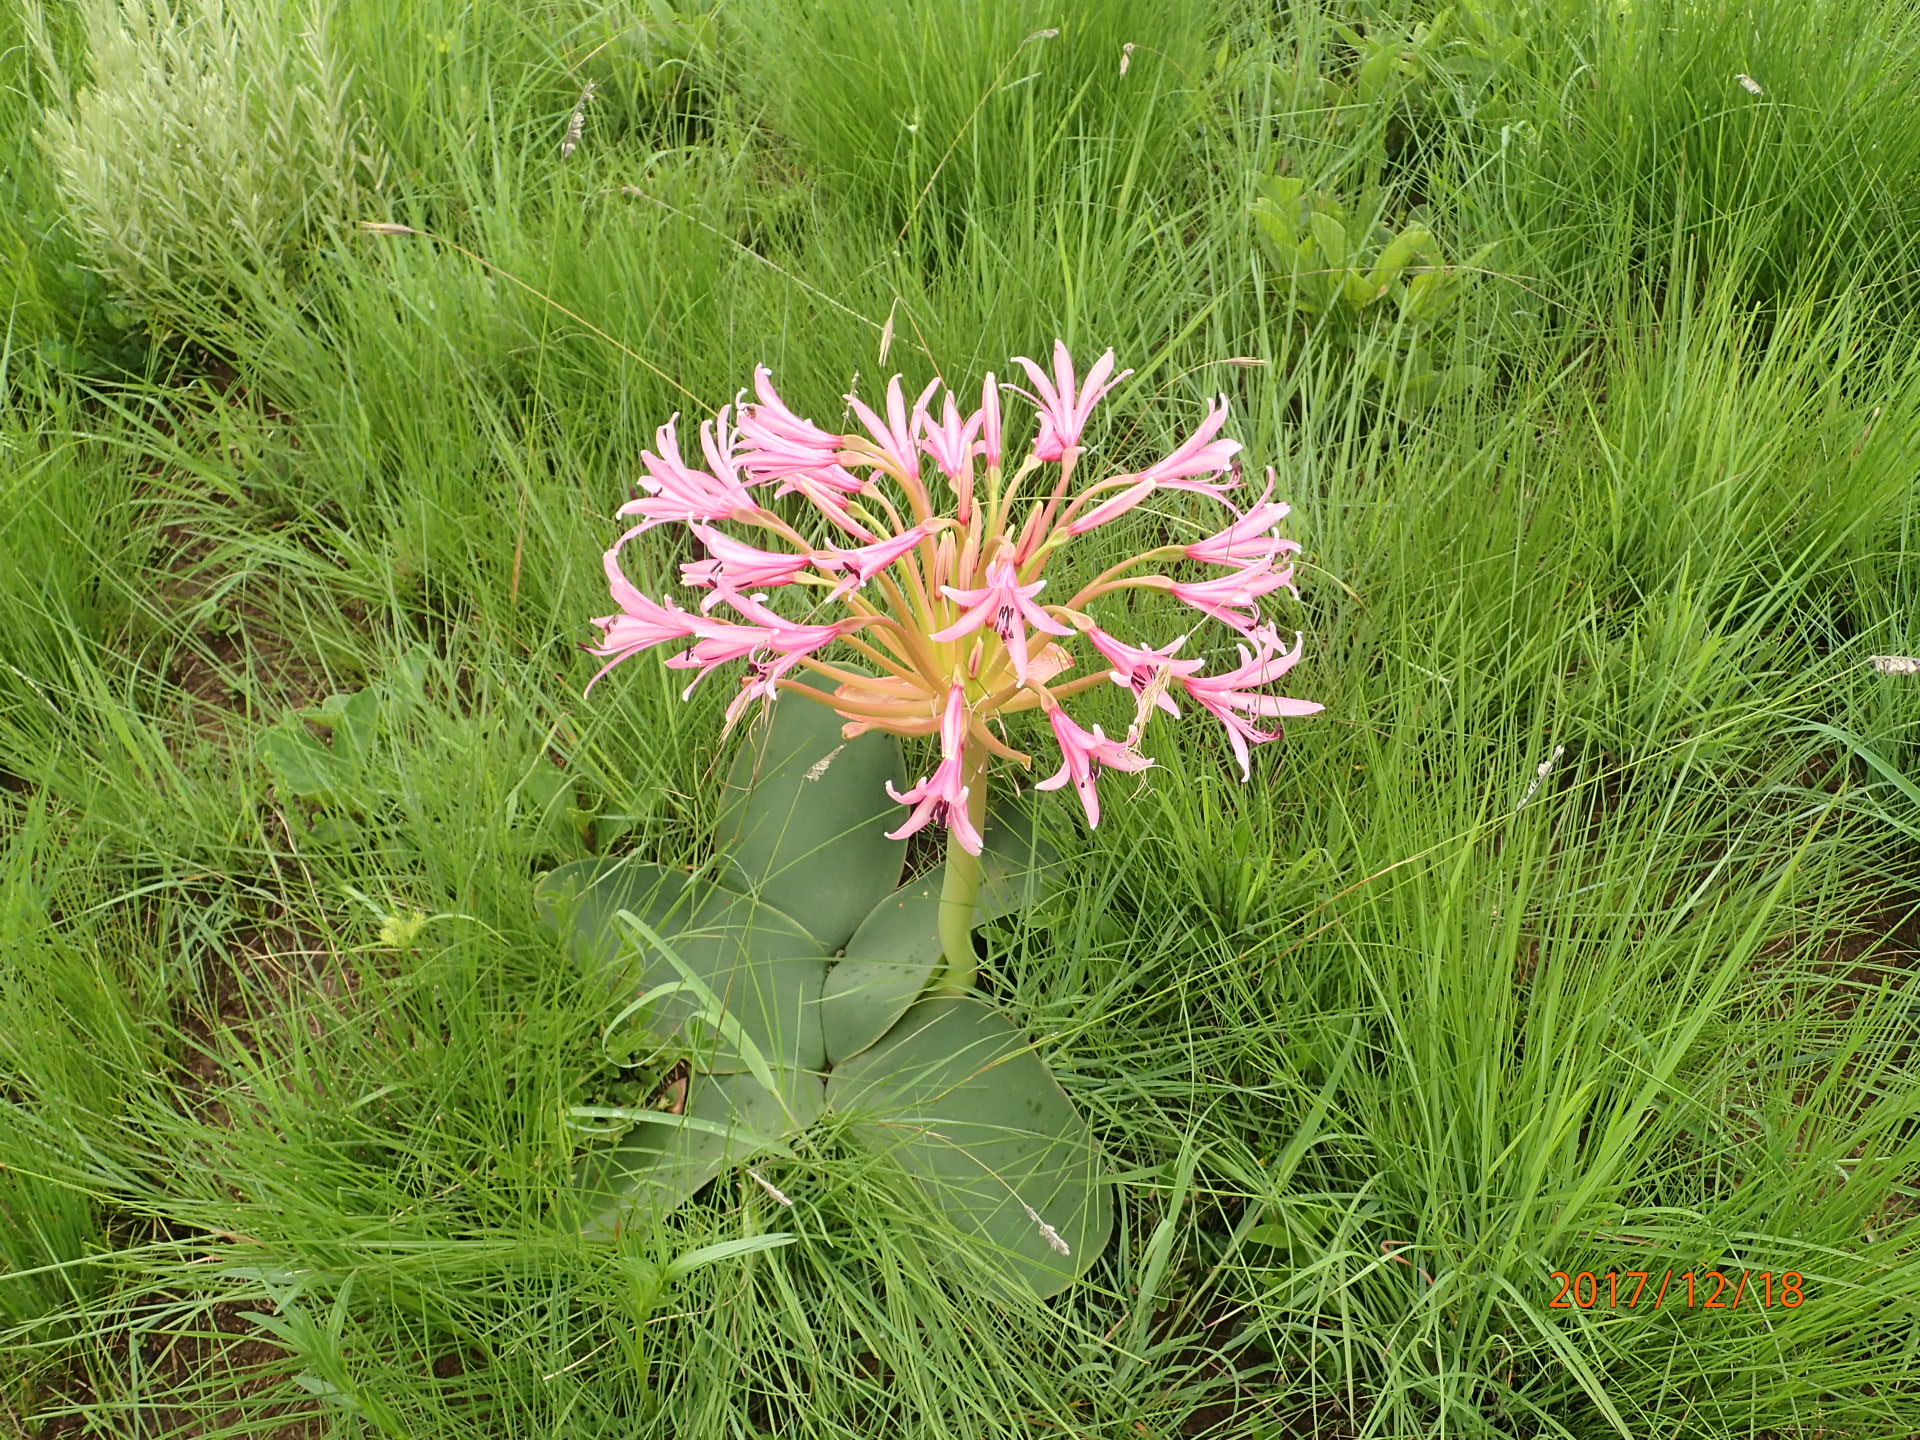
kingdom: Plantae
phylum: Tracheophyta
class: Liliopsida
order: Asparagales
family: Amaryllidaceae
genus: Brunsvigia
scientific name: Brunsvigia radulosa
